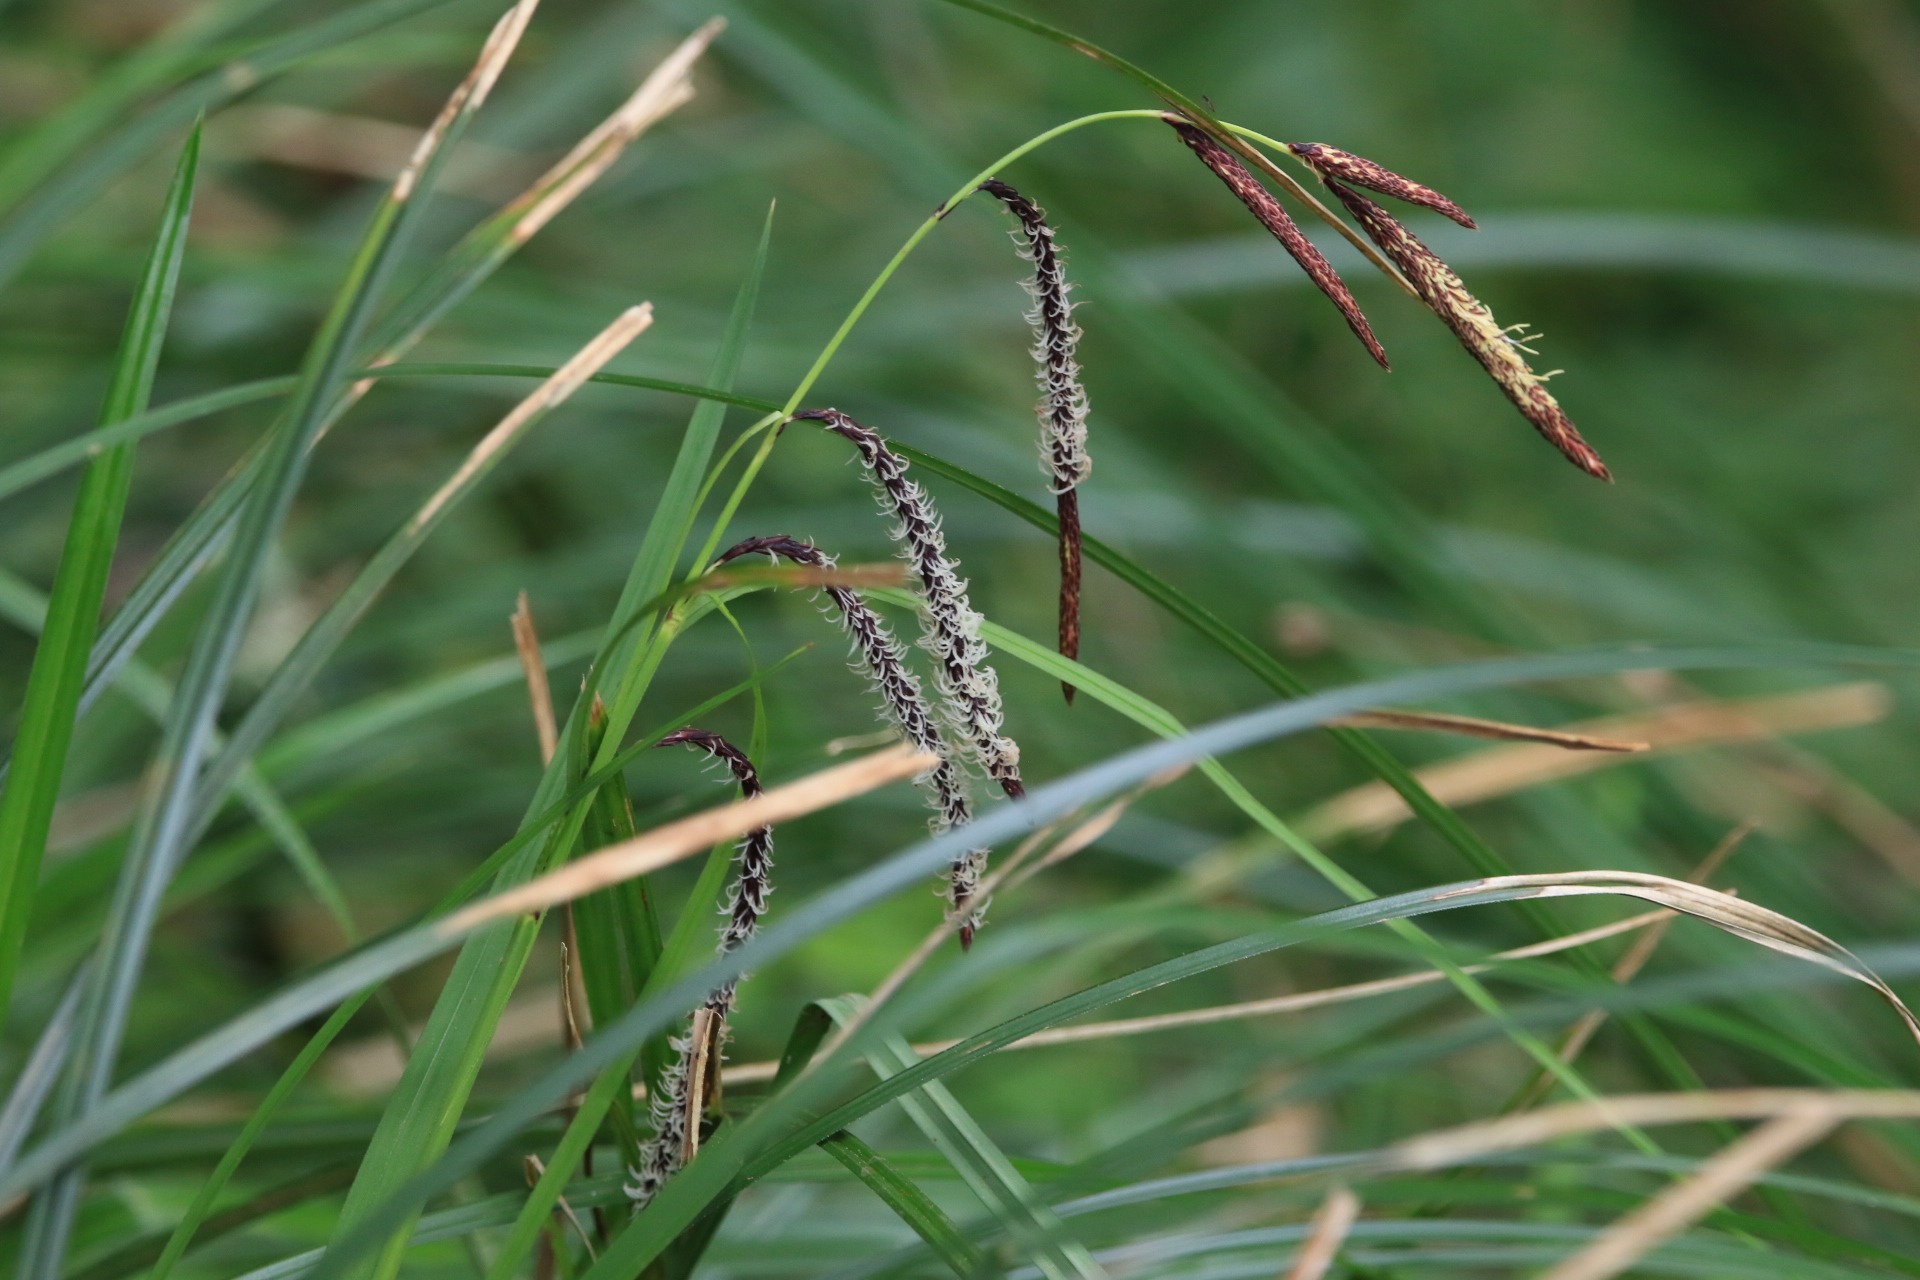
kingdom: Plantae
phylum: Tracheophyta
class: Liliopsida
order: Poales
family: Cyperaceae
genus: Carex
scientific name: Carex obnupta
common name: Slough sedge
